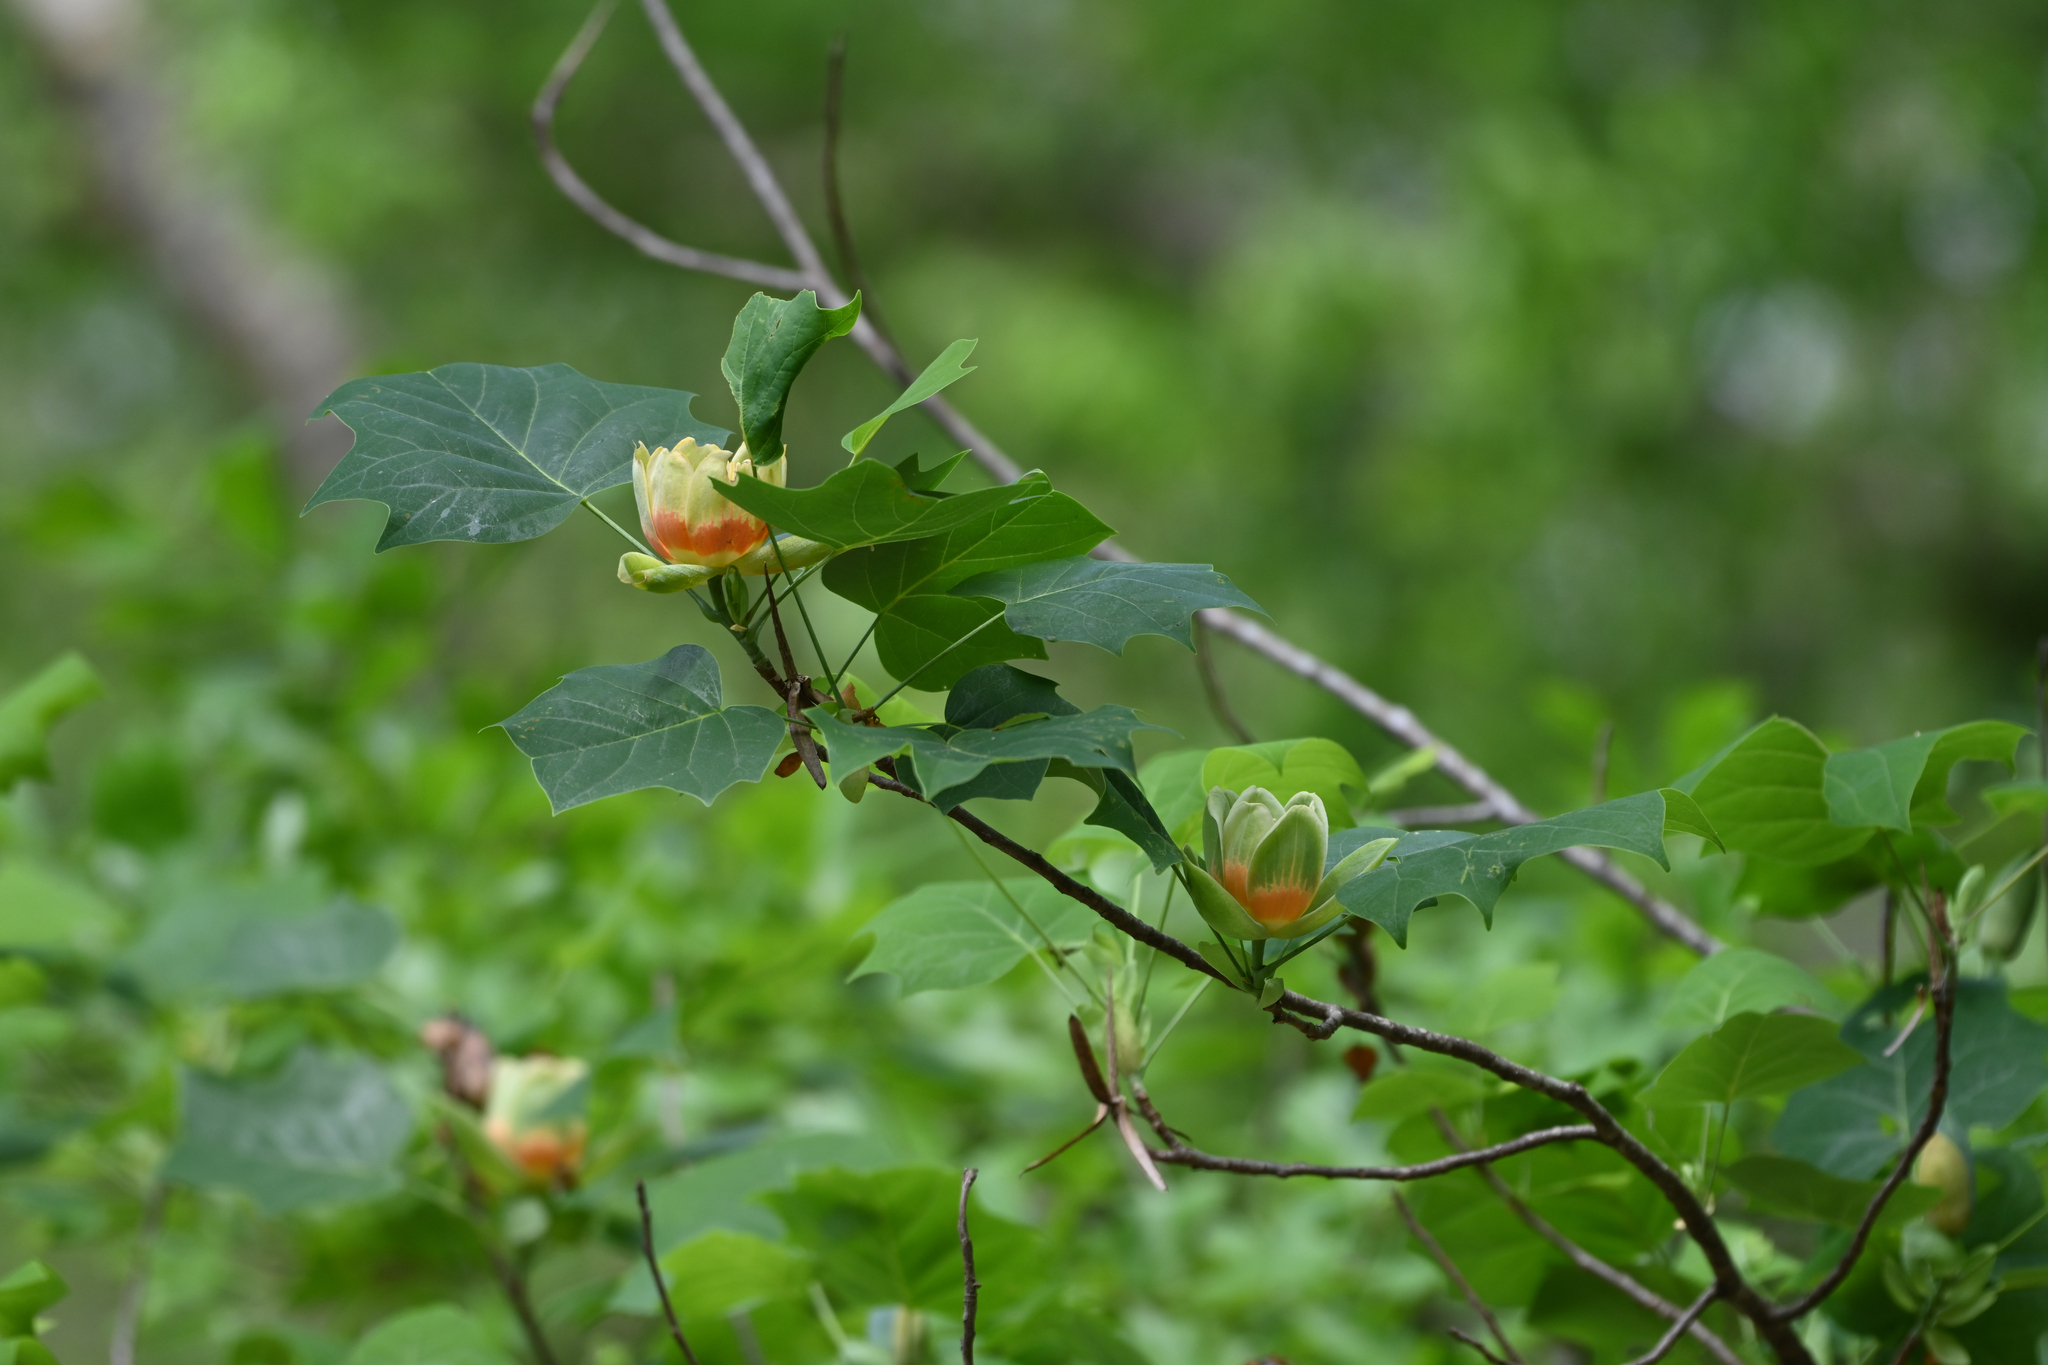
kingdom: Plantae
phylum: Tracheophyta
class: Magnoliopsida
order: Magnoliales
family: Magnoliaceae
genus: Liriodendron
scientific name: Liriodendron tulipifera
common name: Tulip tree
